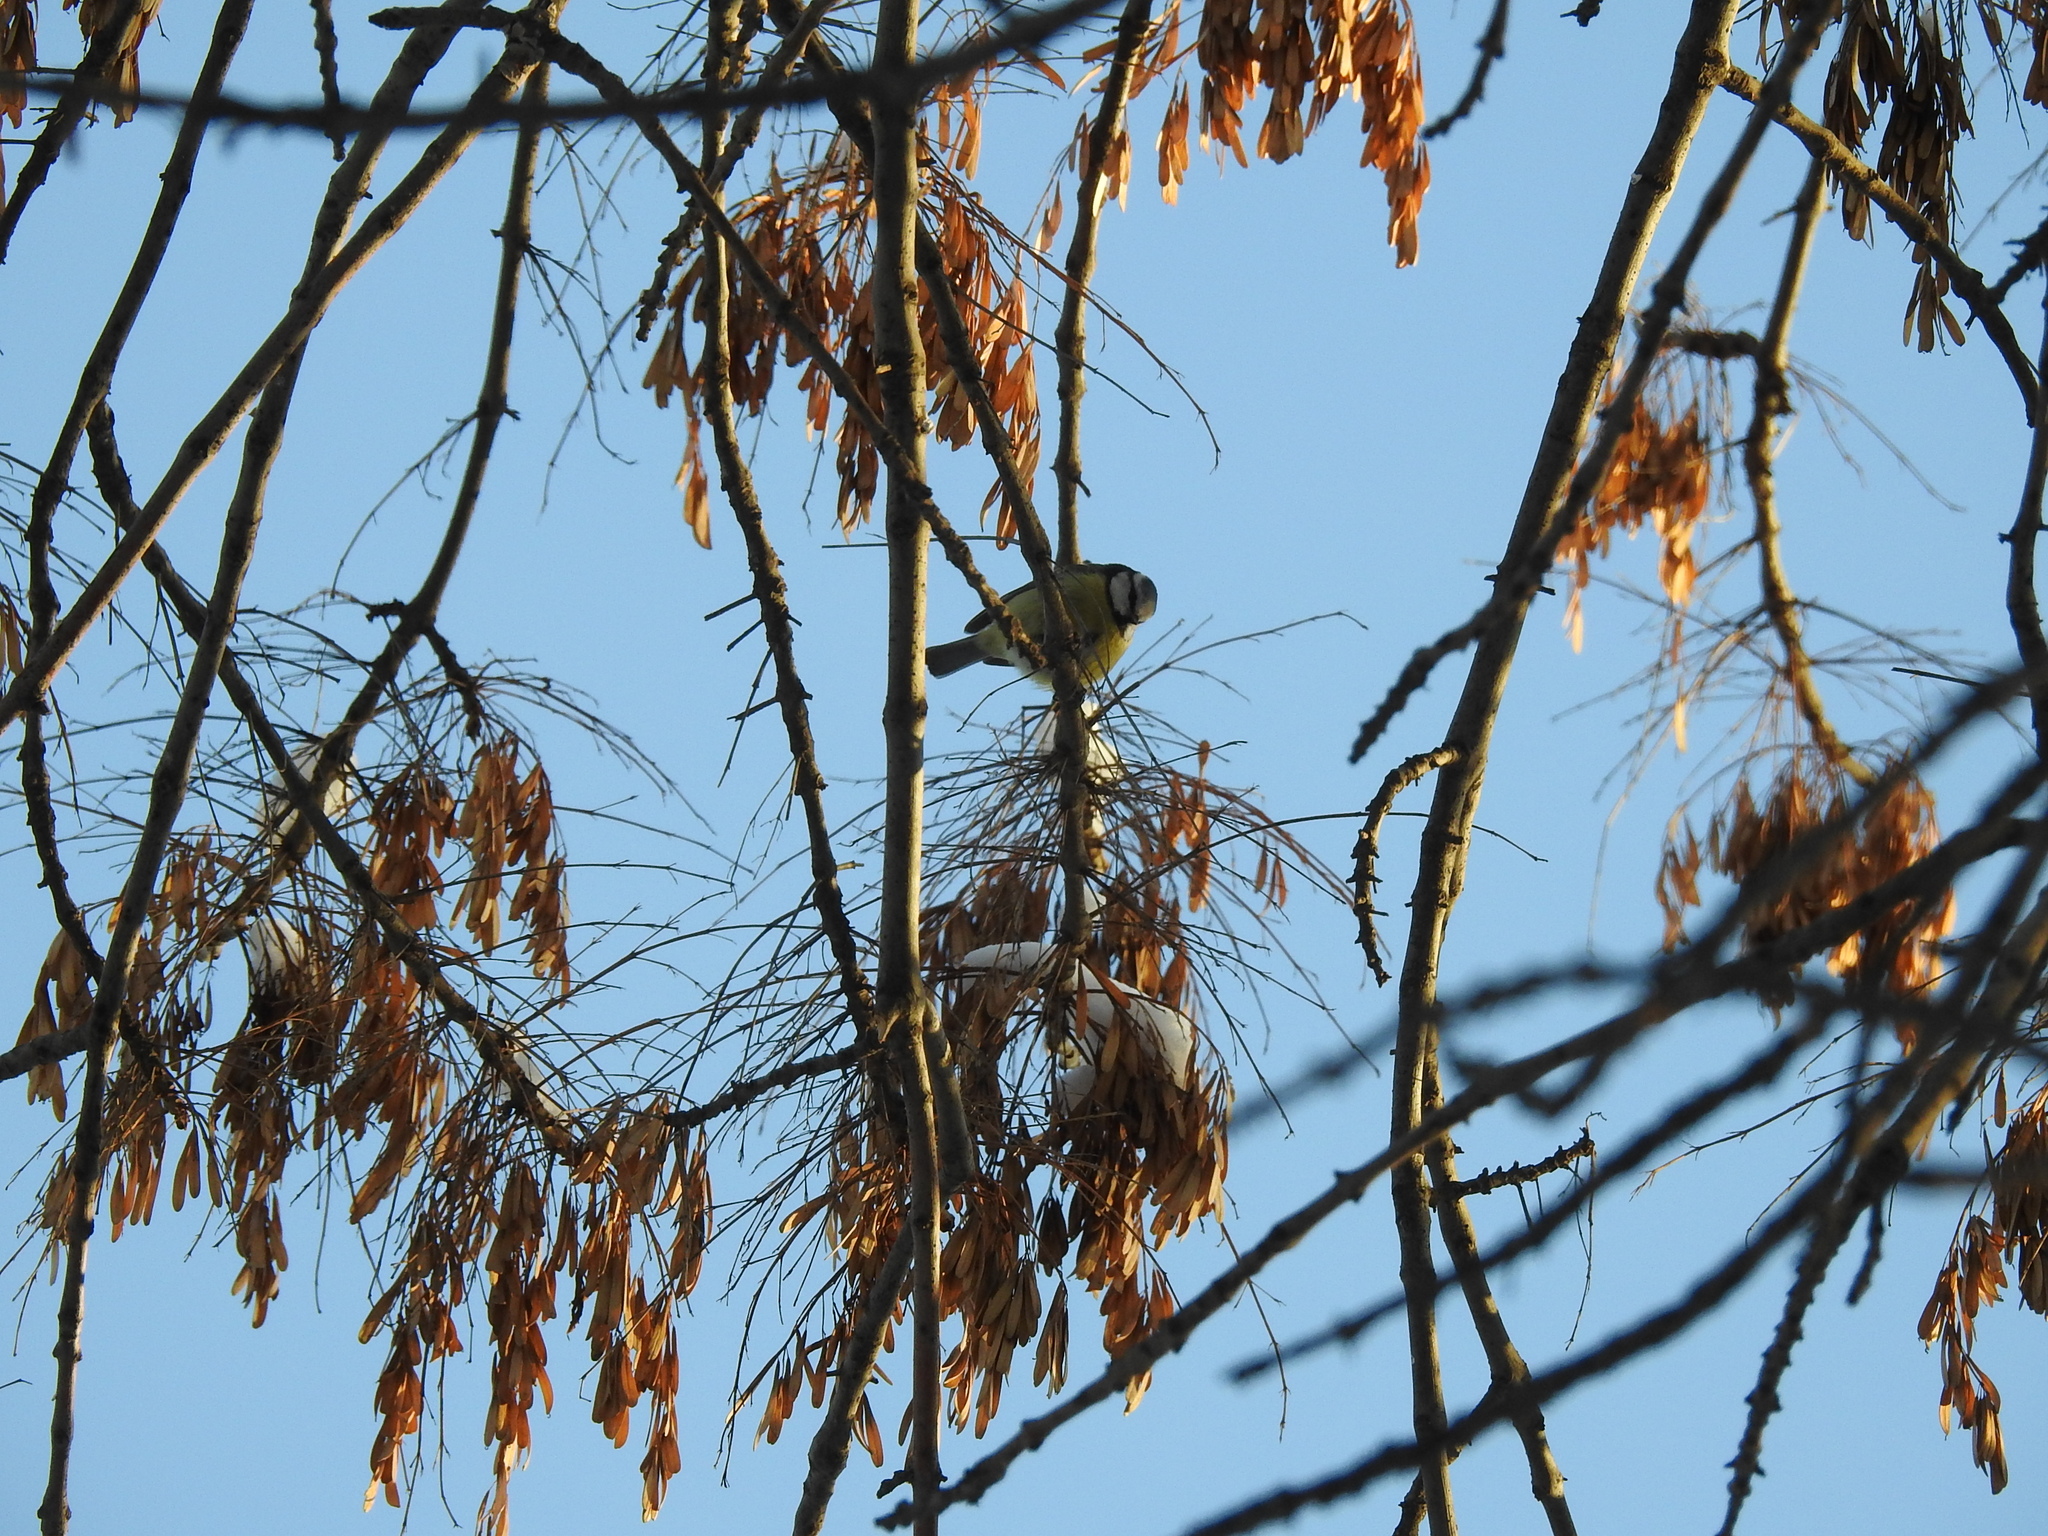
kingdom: Animalia
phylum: Chordata
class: Aves
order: Passeriformes
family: Paridae
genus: Cyanistes
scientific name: Cyanistes caeruleus
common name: Eurasian blue tit
